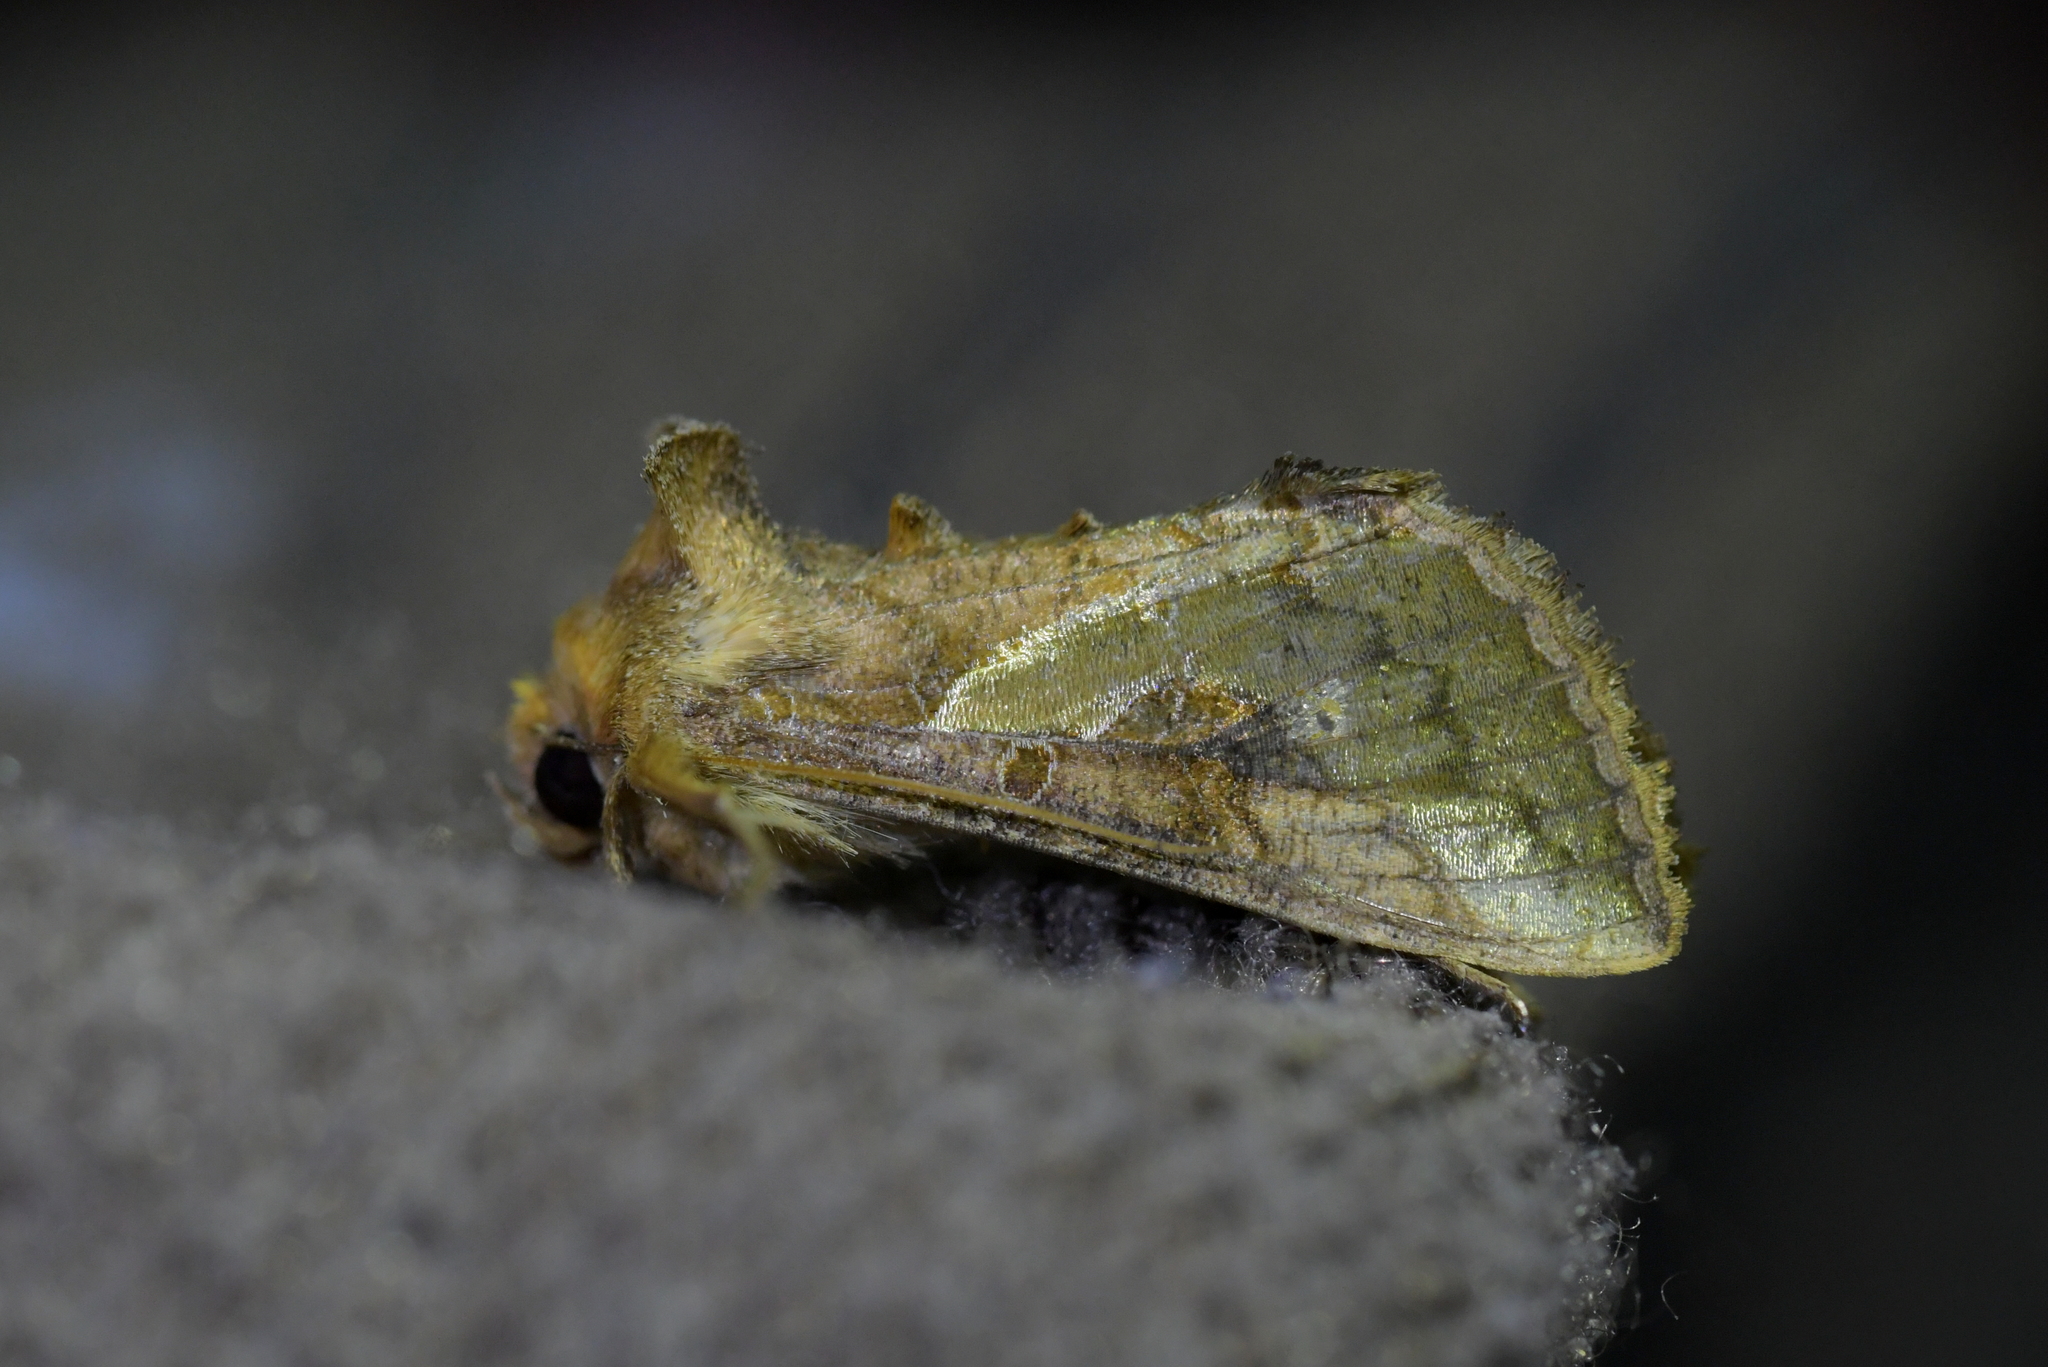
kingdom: Animalia
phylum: Arthropoda
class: Insecta
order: Lepidoptera
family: Noctuidae
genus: Thysanoplusia
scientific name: Thysanoplusia orichalcea
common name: Slender burnished brass, golden plusia
